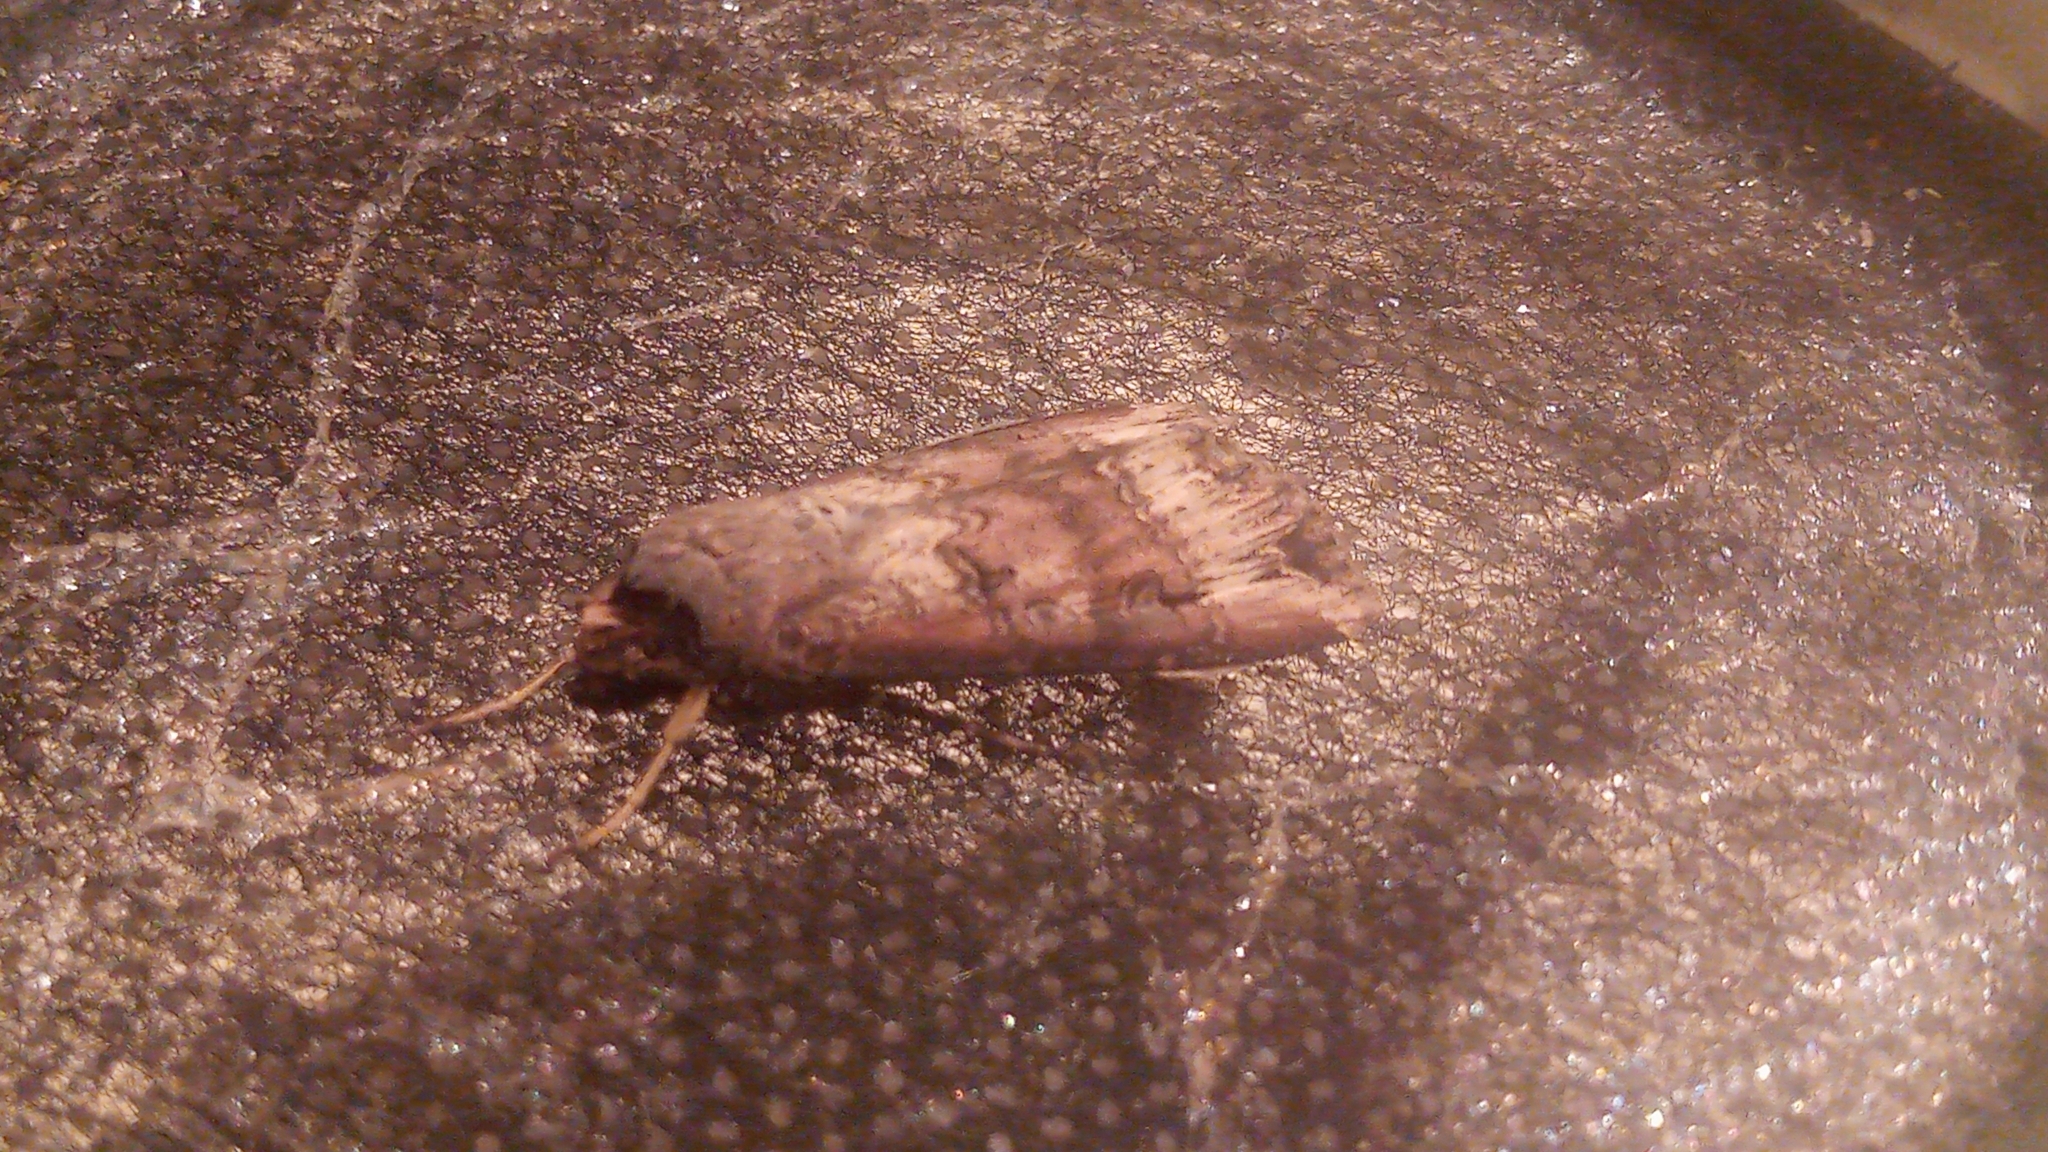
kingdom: Animalia
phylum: Arthropoda
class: Insecta
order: Lepidoptera
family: Noctuidae
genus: Agrotis
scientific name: Agrotis ipsilon
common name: Dark sword-grass
